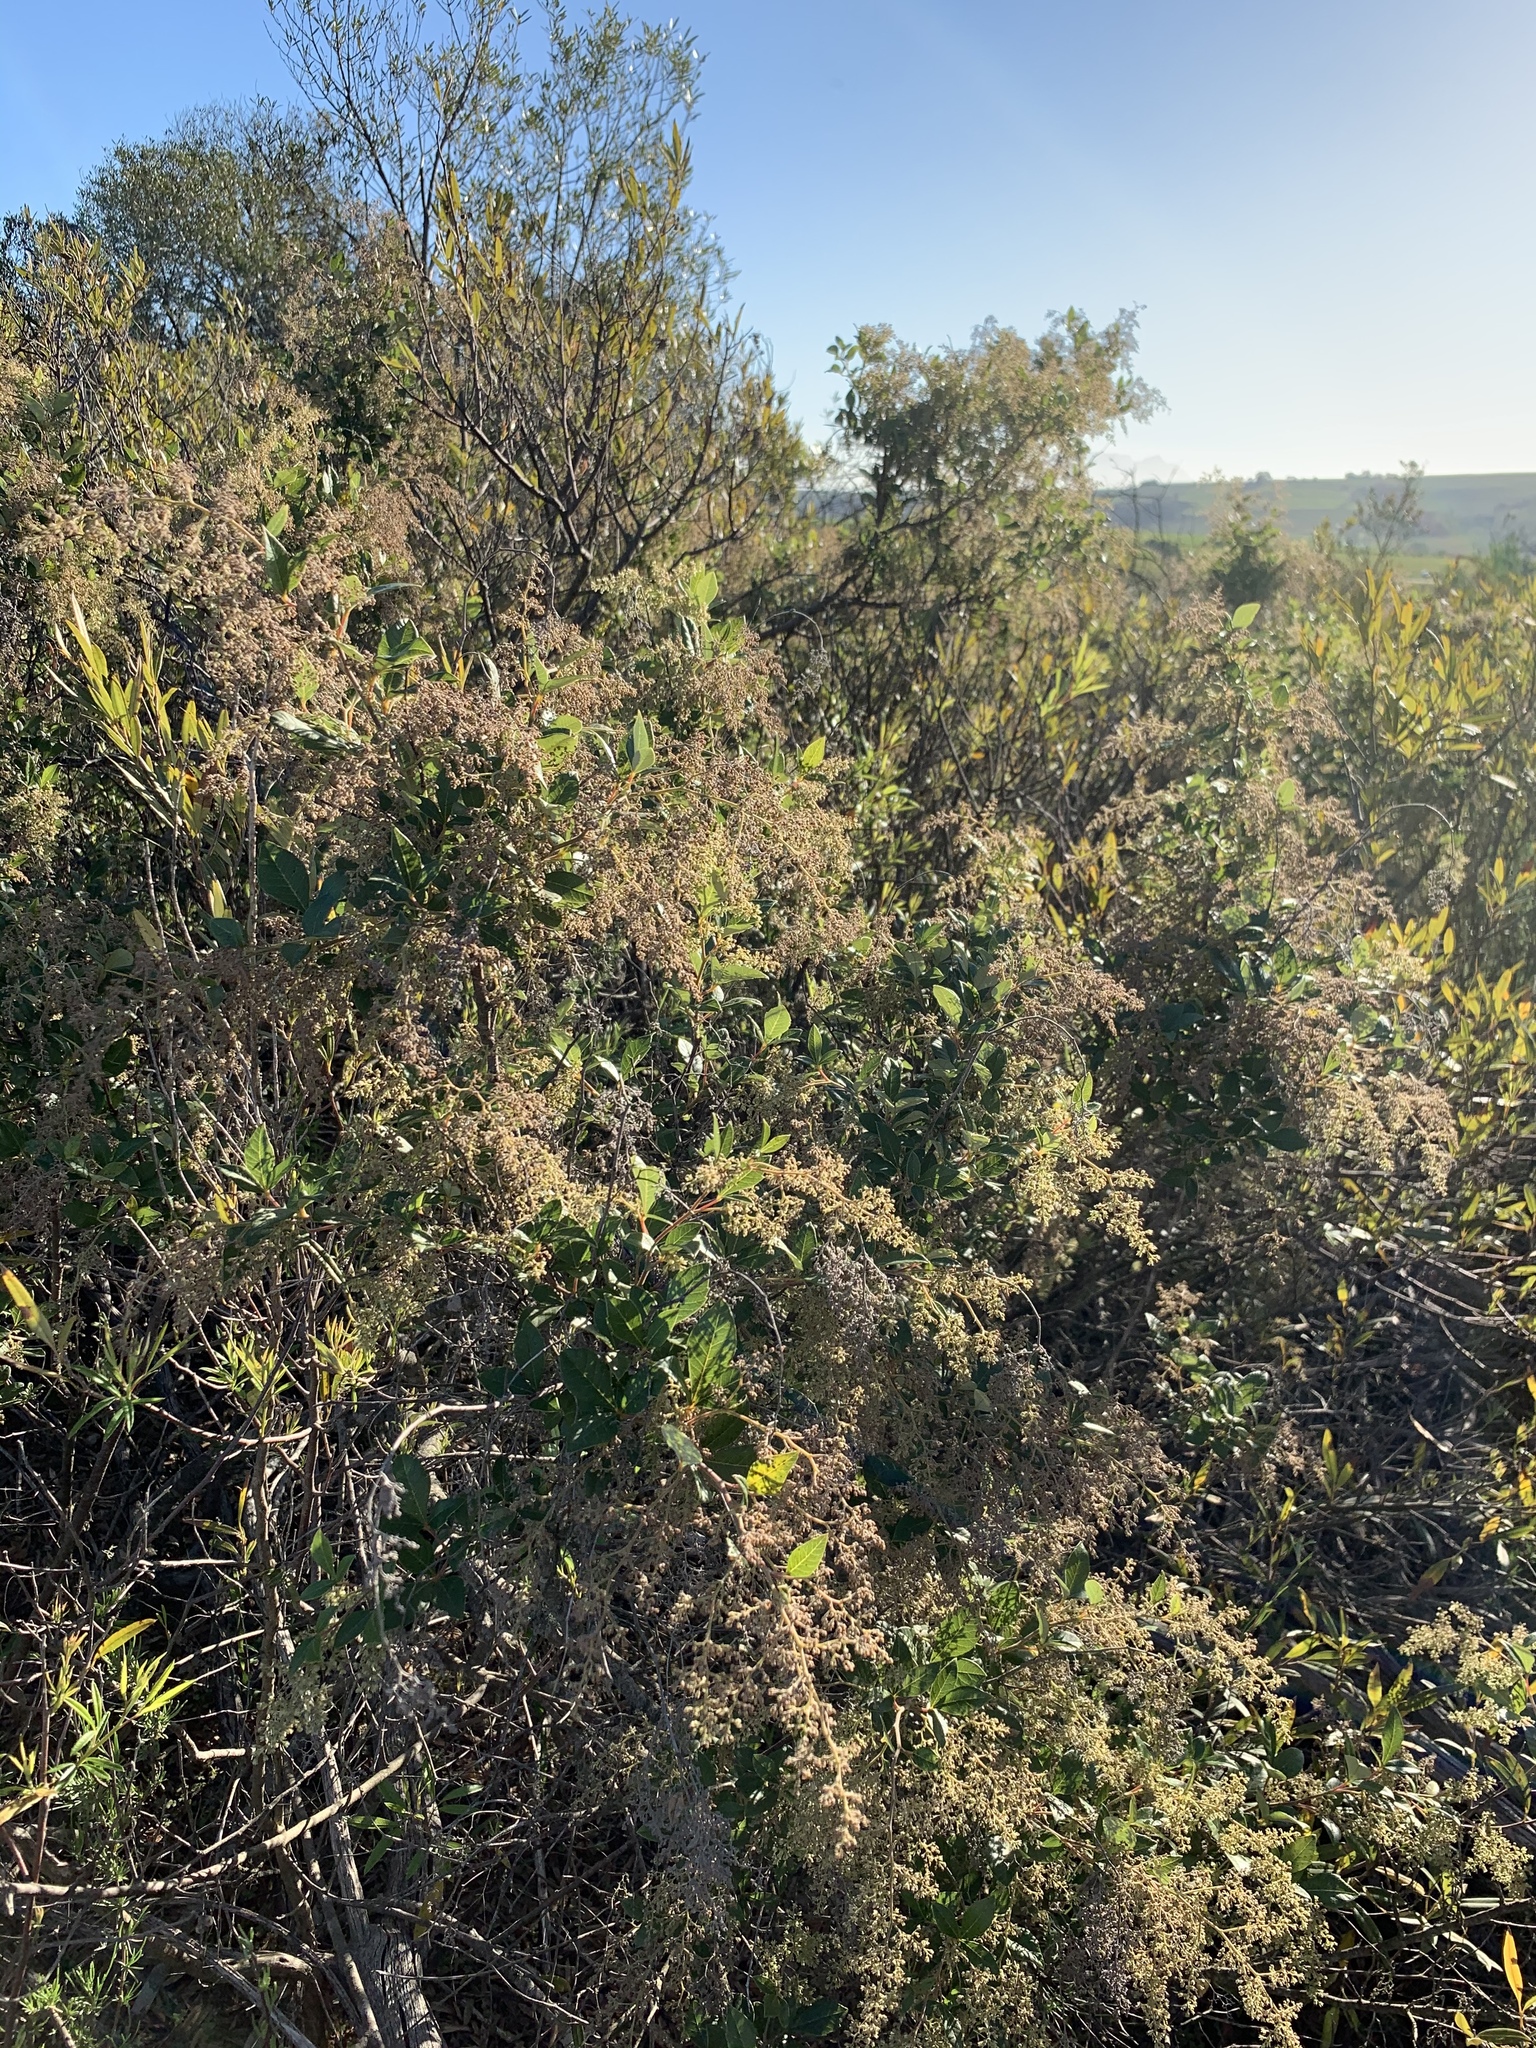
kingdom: Plantae
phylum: Tracheophyta
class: Magnoliopsida
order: Sapindales
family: Anacardiaceae
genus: Searsia
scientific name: Searsia tomentosa
